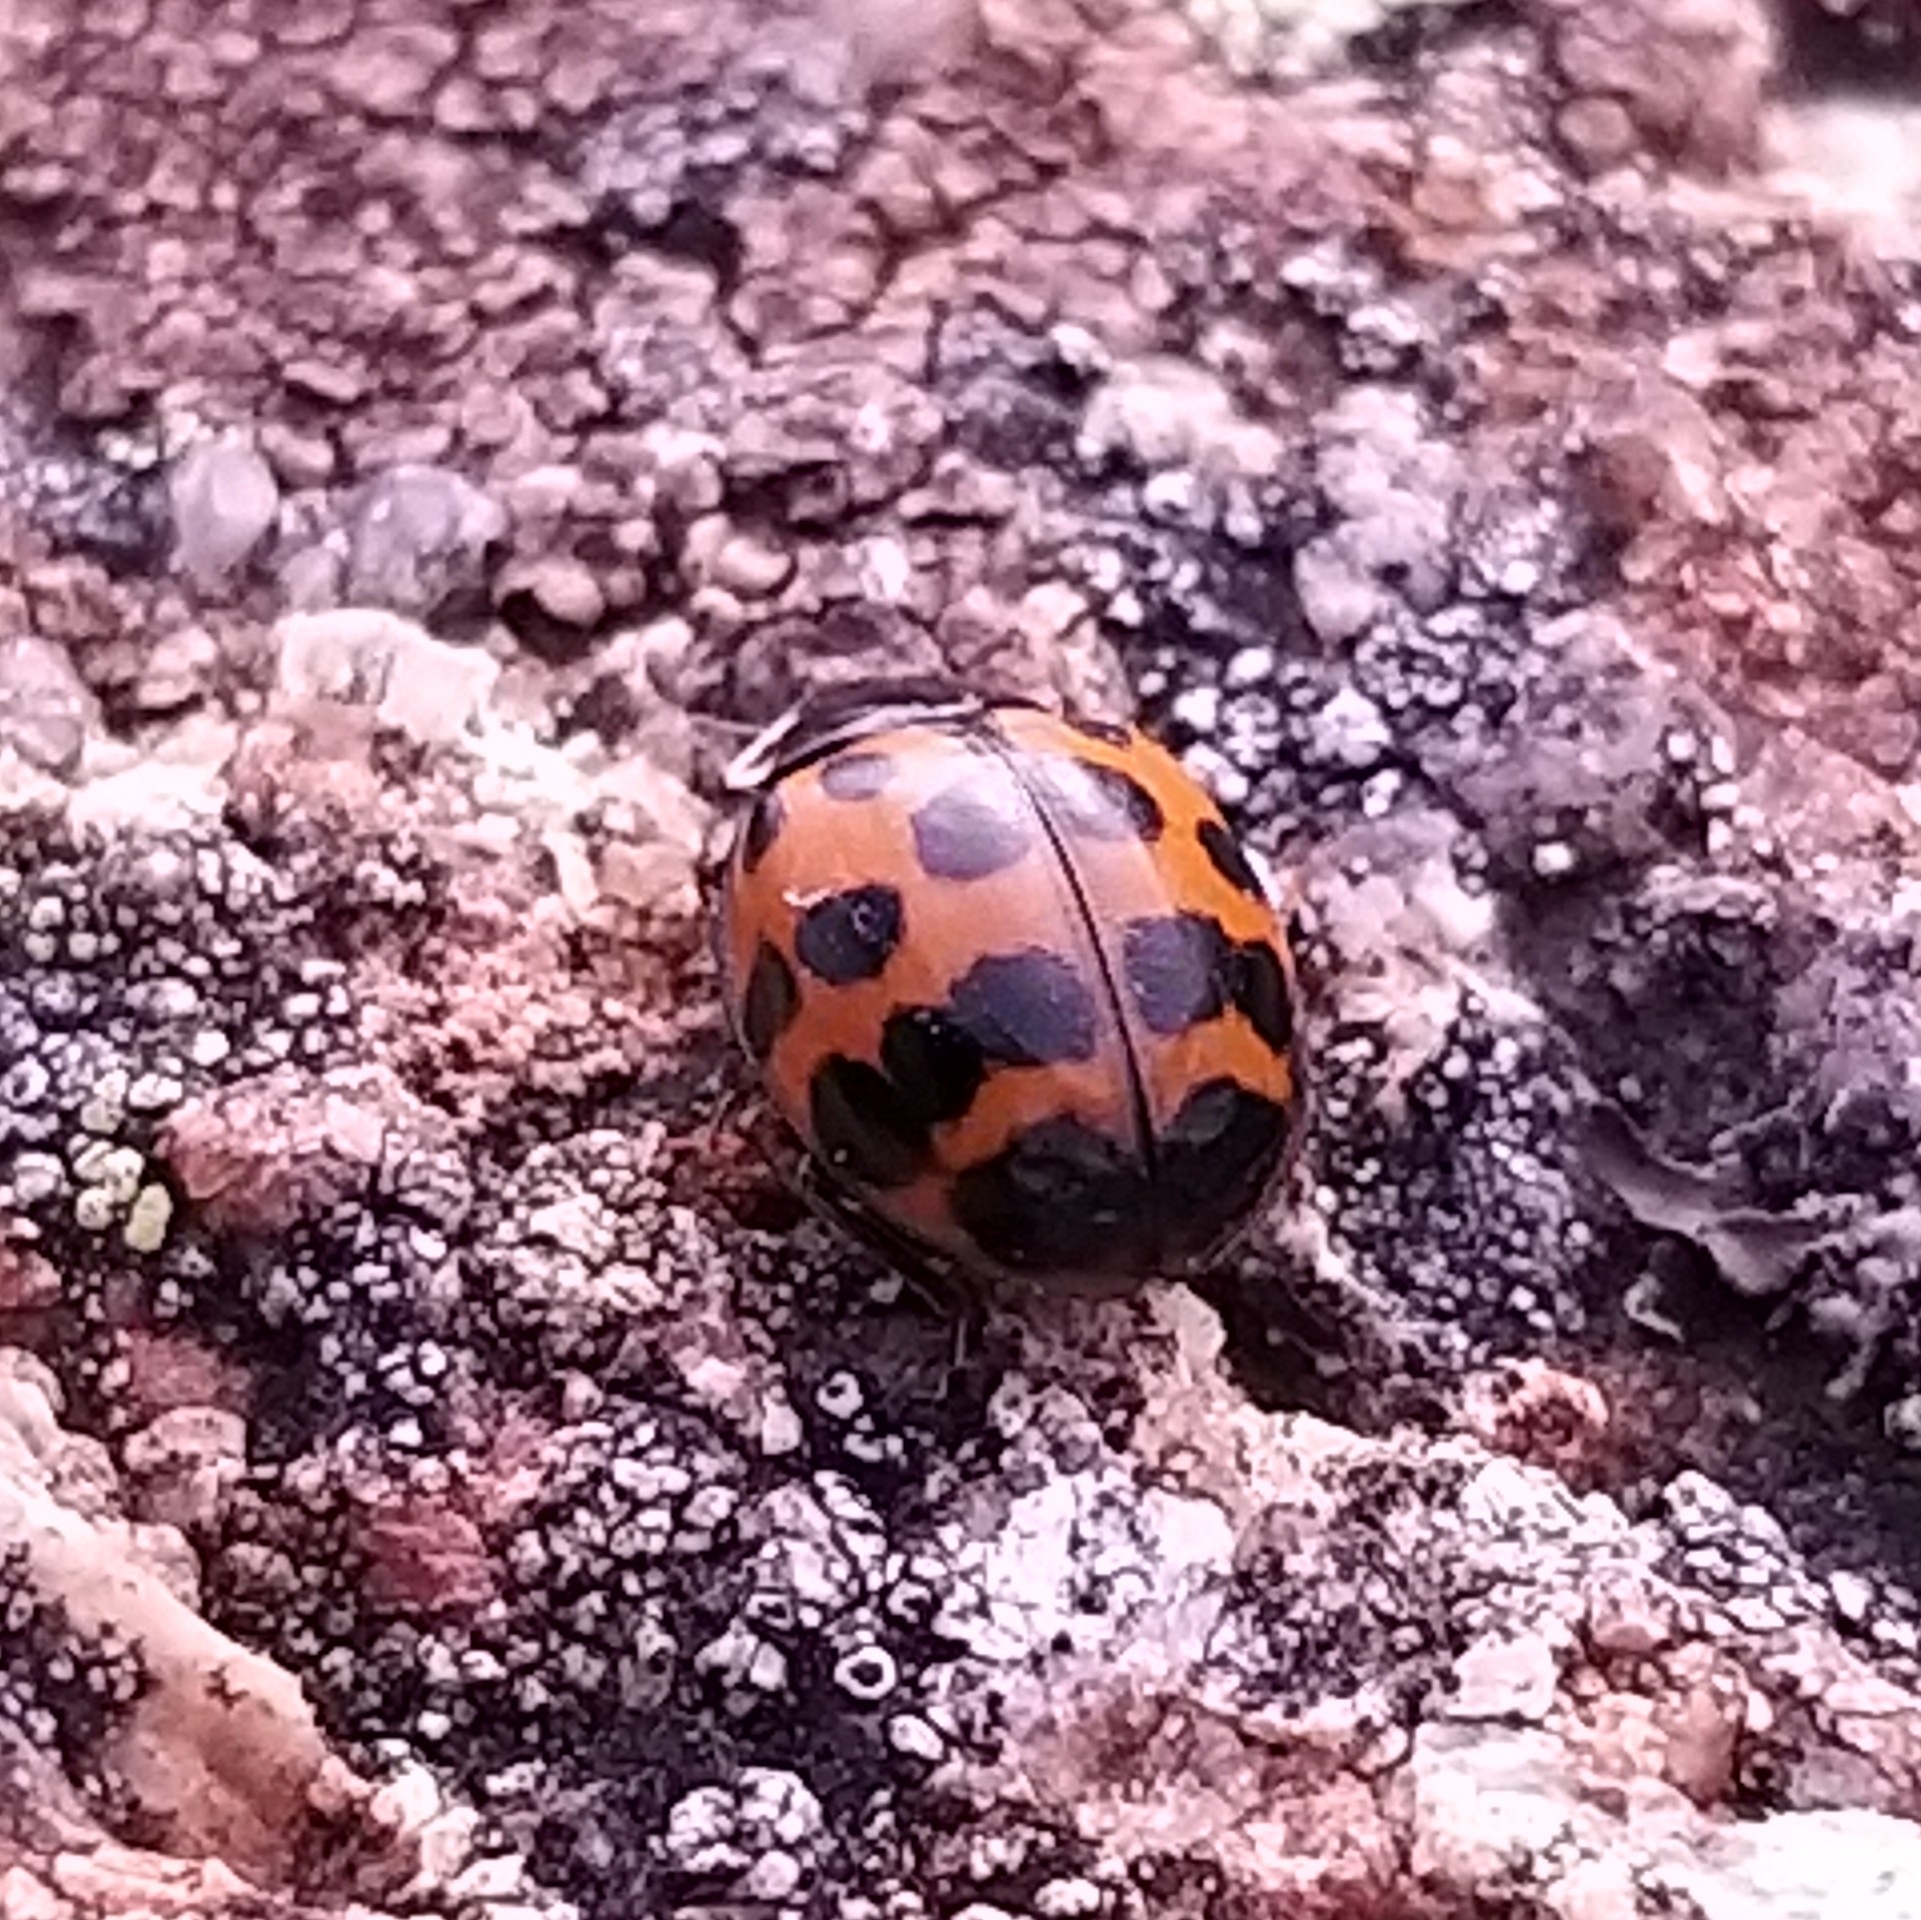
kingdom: Animalia
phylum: Arthropoda
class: Insecta
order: Coleoptera
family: Coccinellidae
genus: Harmonia
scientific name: Harmonia axyridis
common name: Harlequin ladybird
